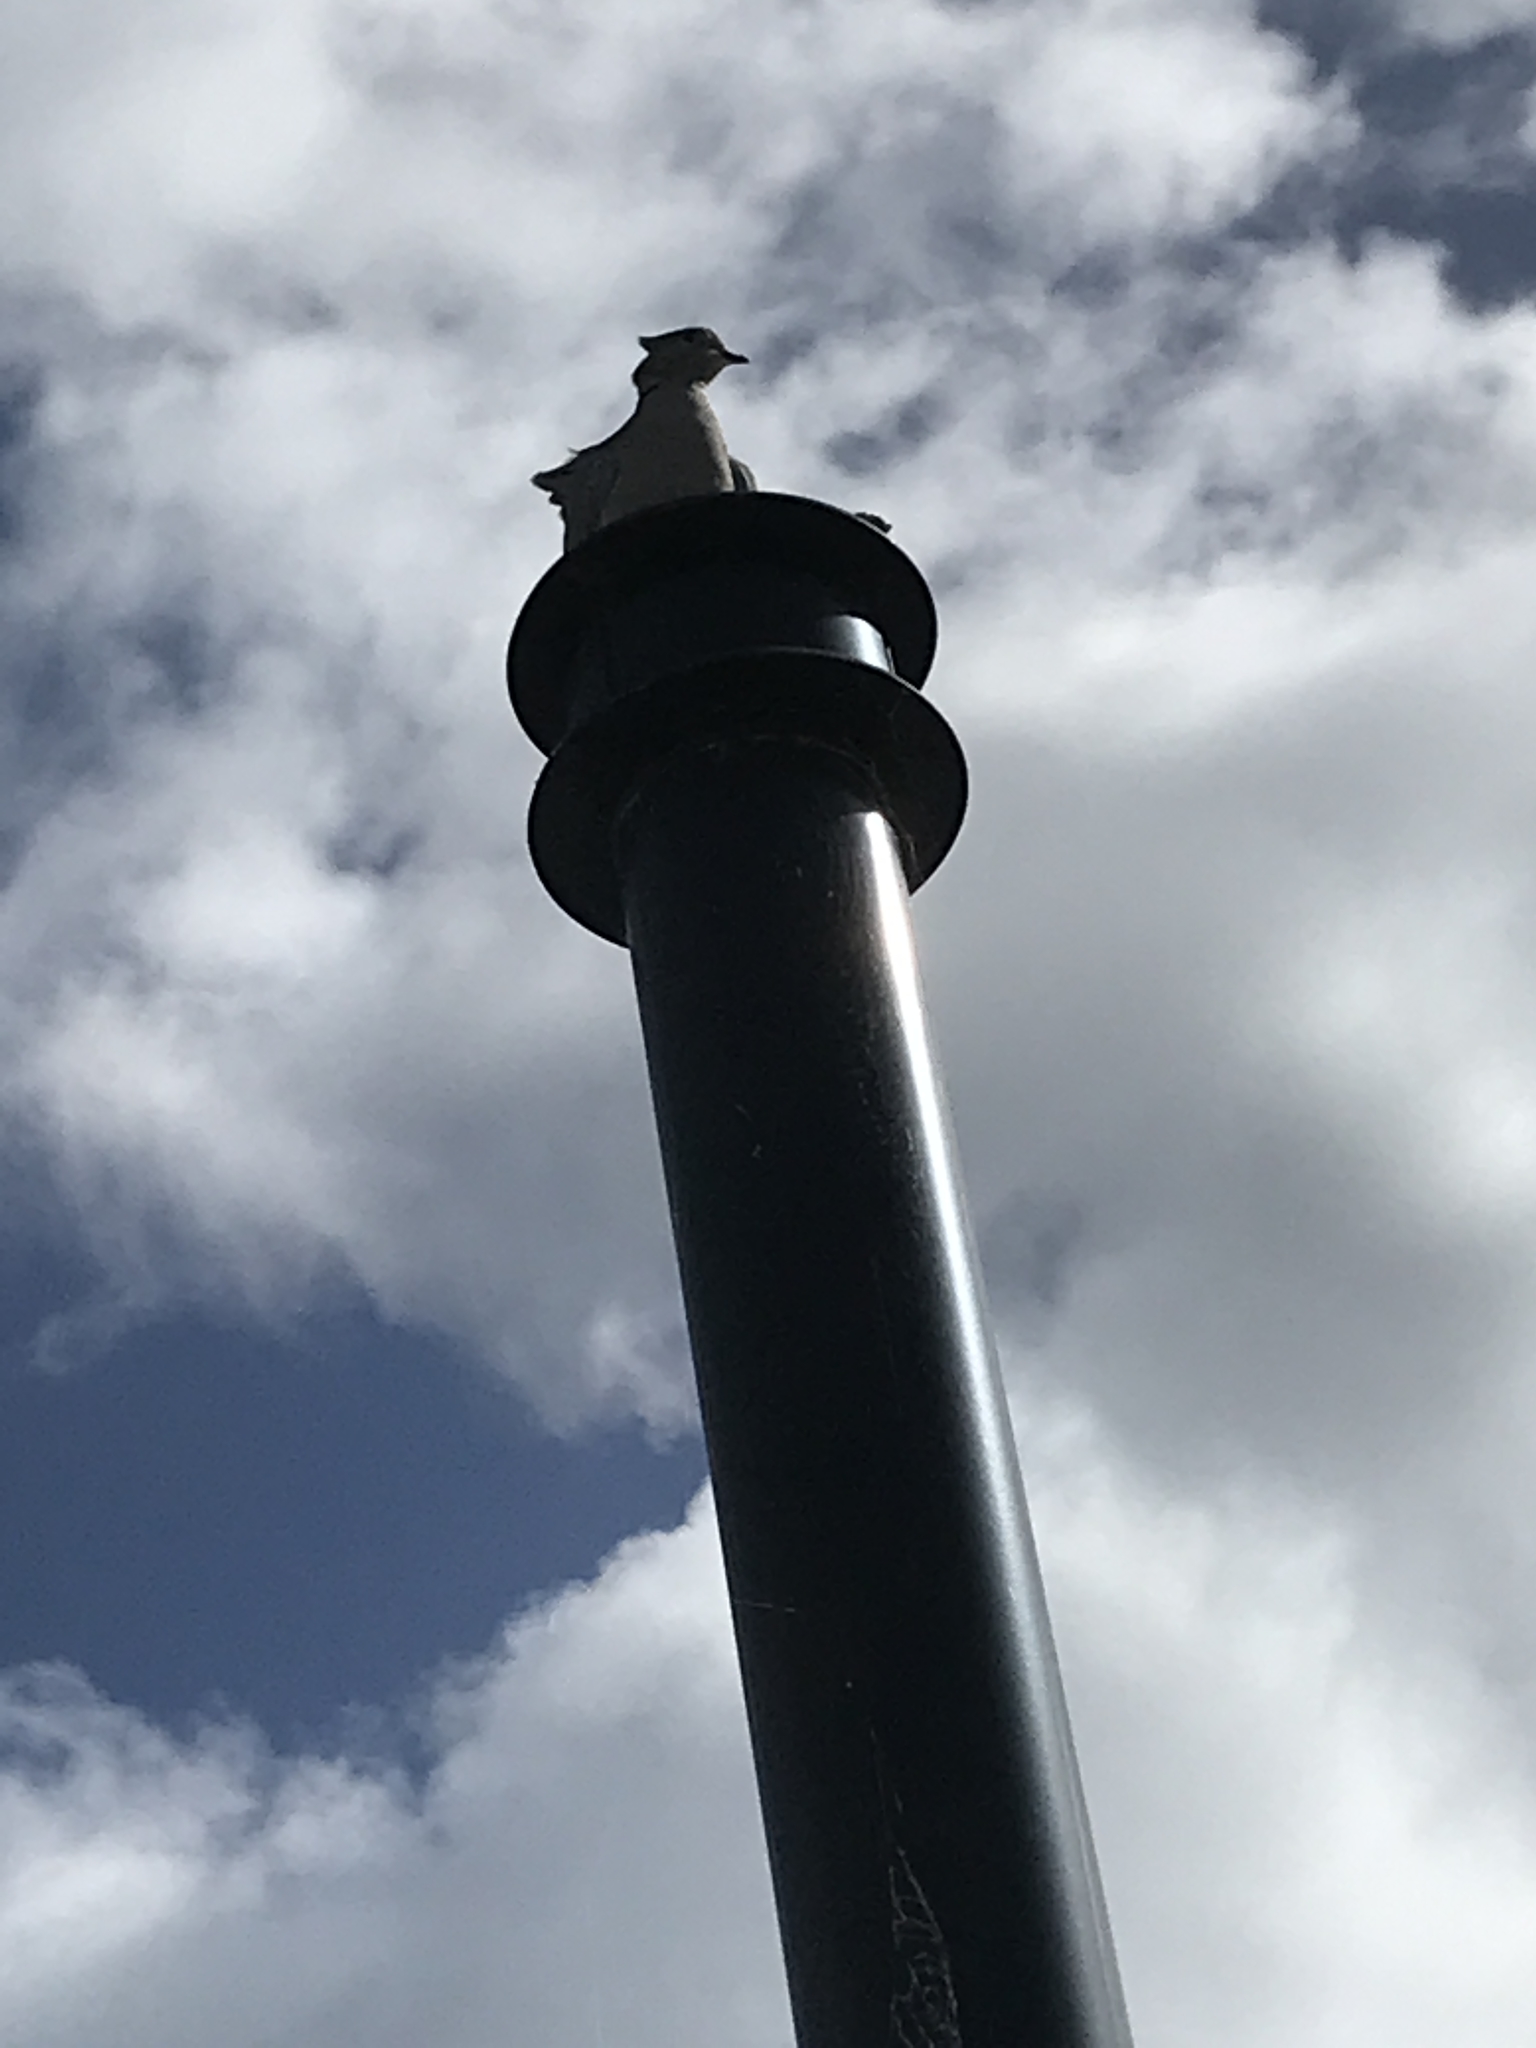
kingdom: Animalia
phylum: Chordata
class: Aves
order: Columbiformes
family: Columbidae
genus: Streptopelia
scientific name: Streptopelia decaocto
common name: Eurasian collared dove
